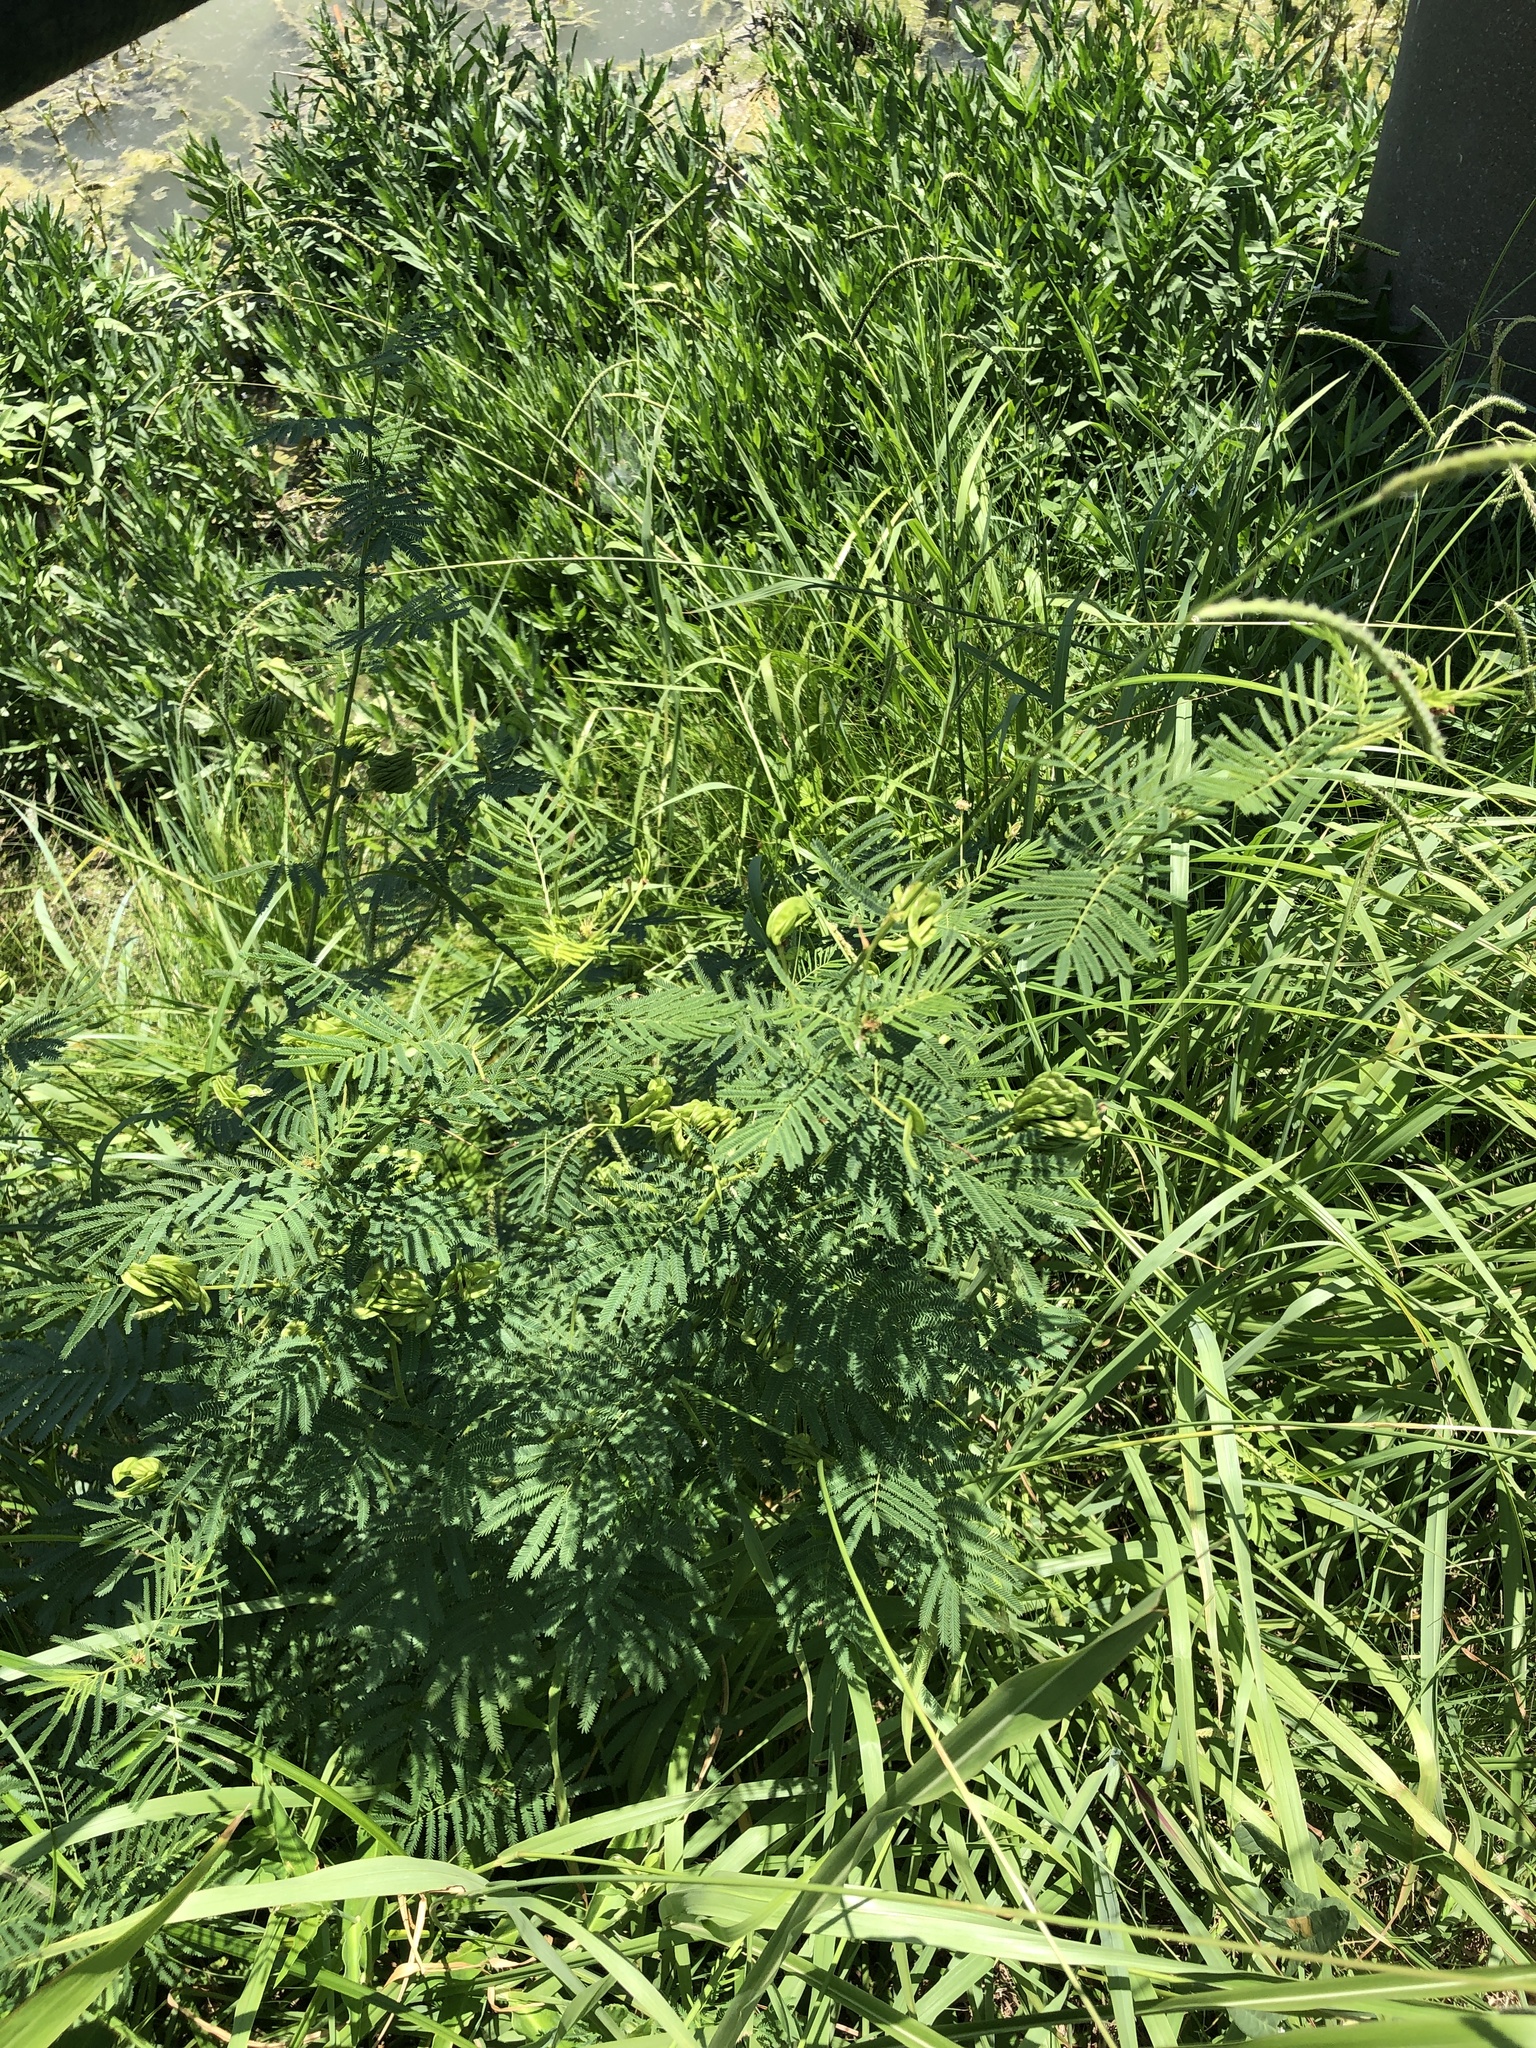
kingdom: Plantae
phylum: Tracheophyta
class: Magnoliopsida
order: Fabales
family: Fabaceae
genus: Desmanthus
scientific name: Desmanthus illinoensis
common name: Illinois bundle-flower
